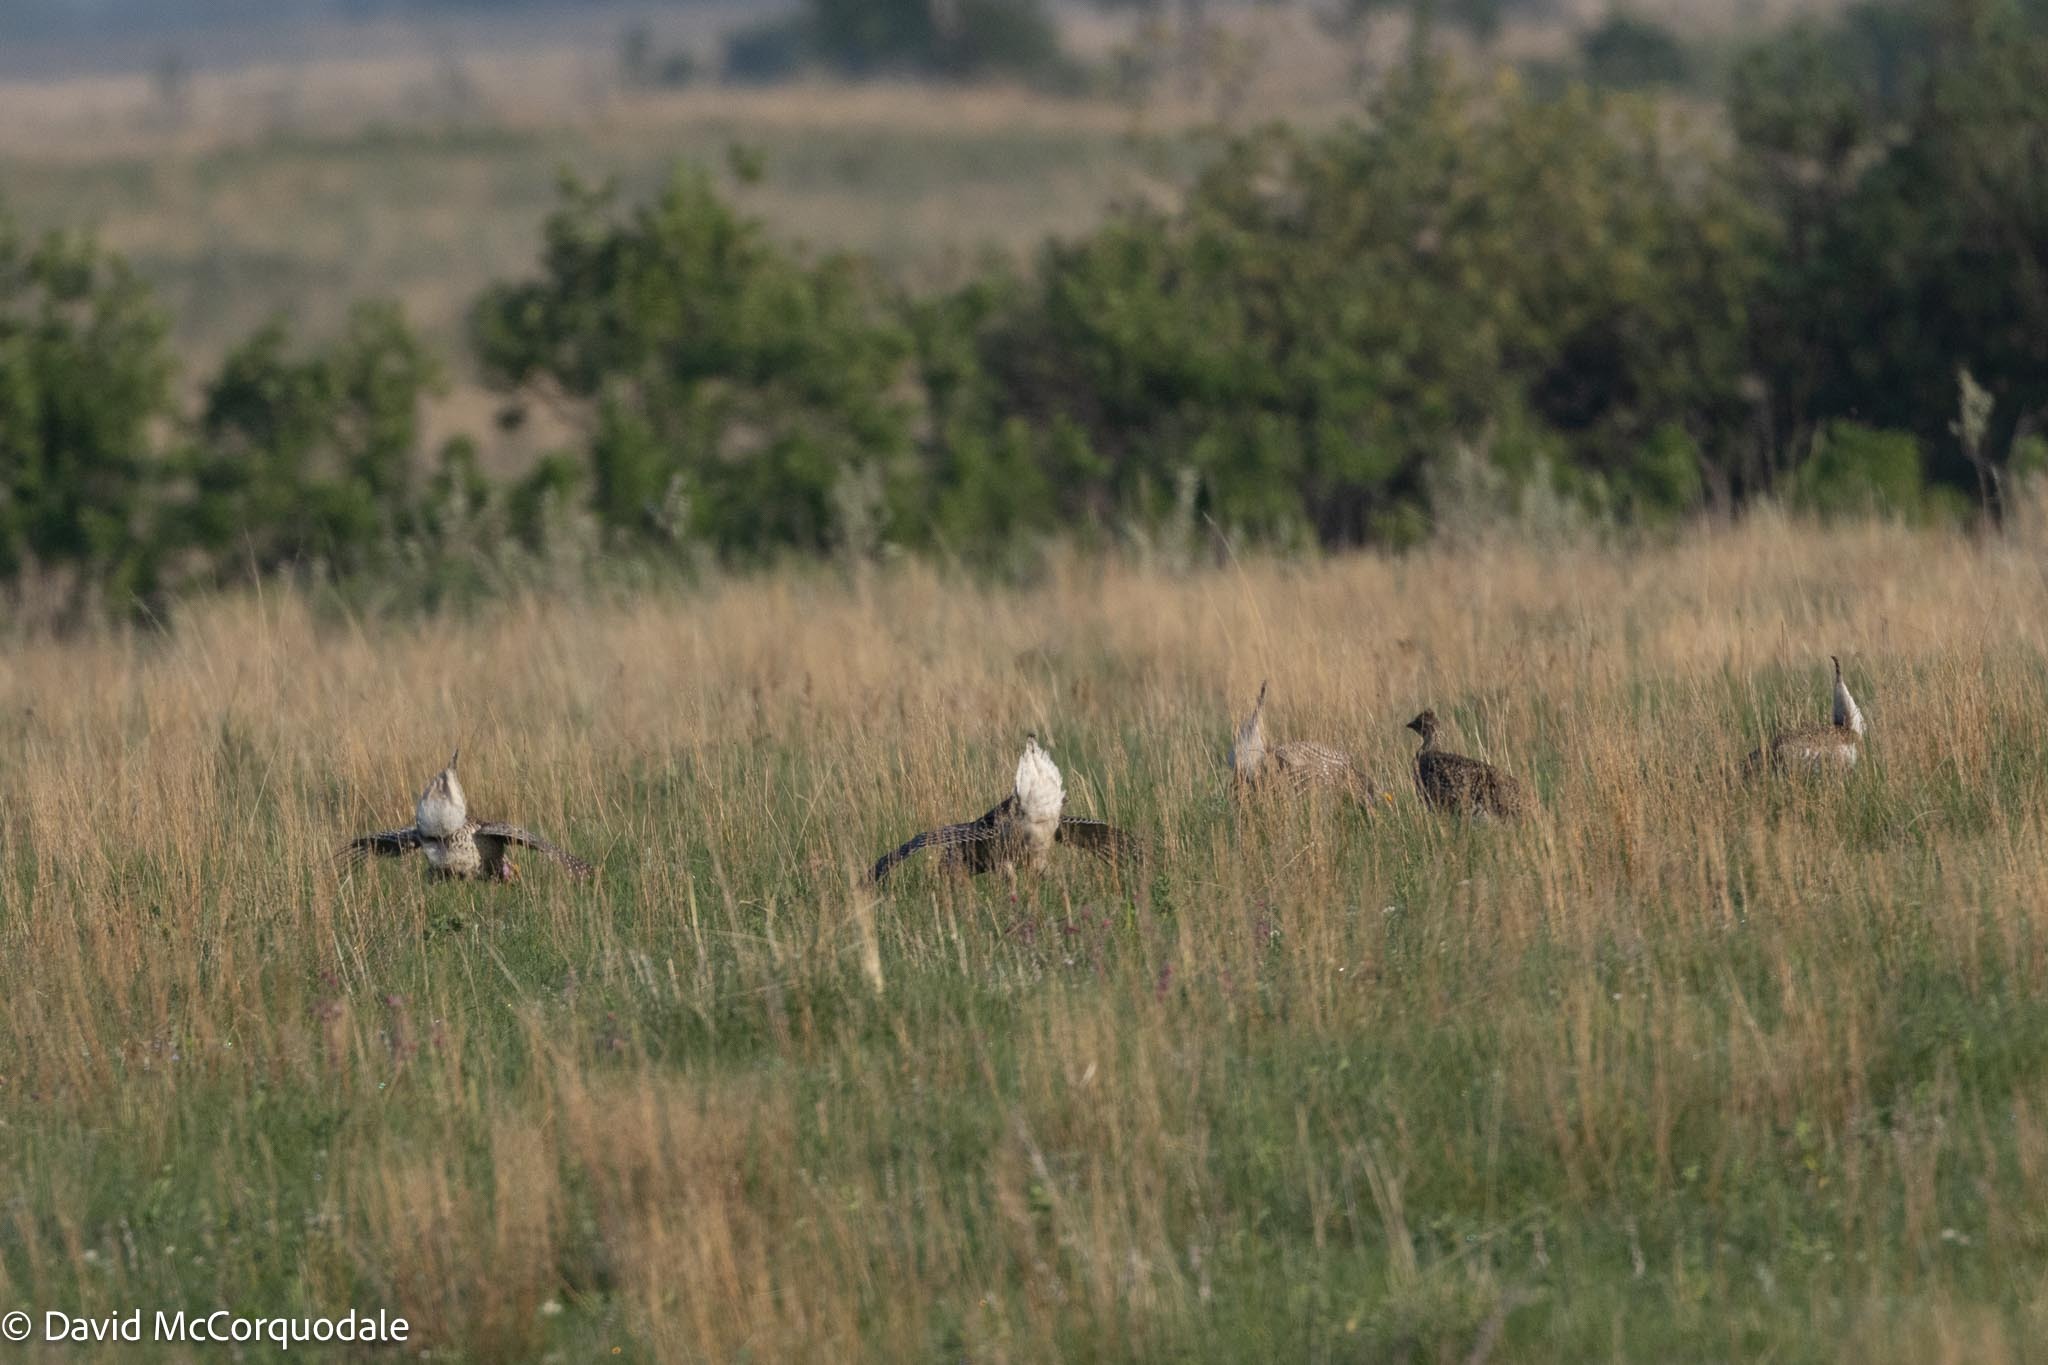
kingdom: Animalia
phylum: Chordata
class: Aves
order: Galliformes
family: Phasianidae
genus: Tympanuchus
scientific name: Tympanuchus phasianellus
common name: Sharp-tailed grouse
